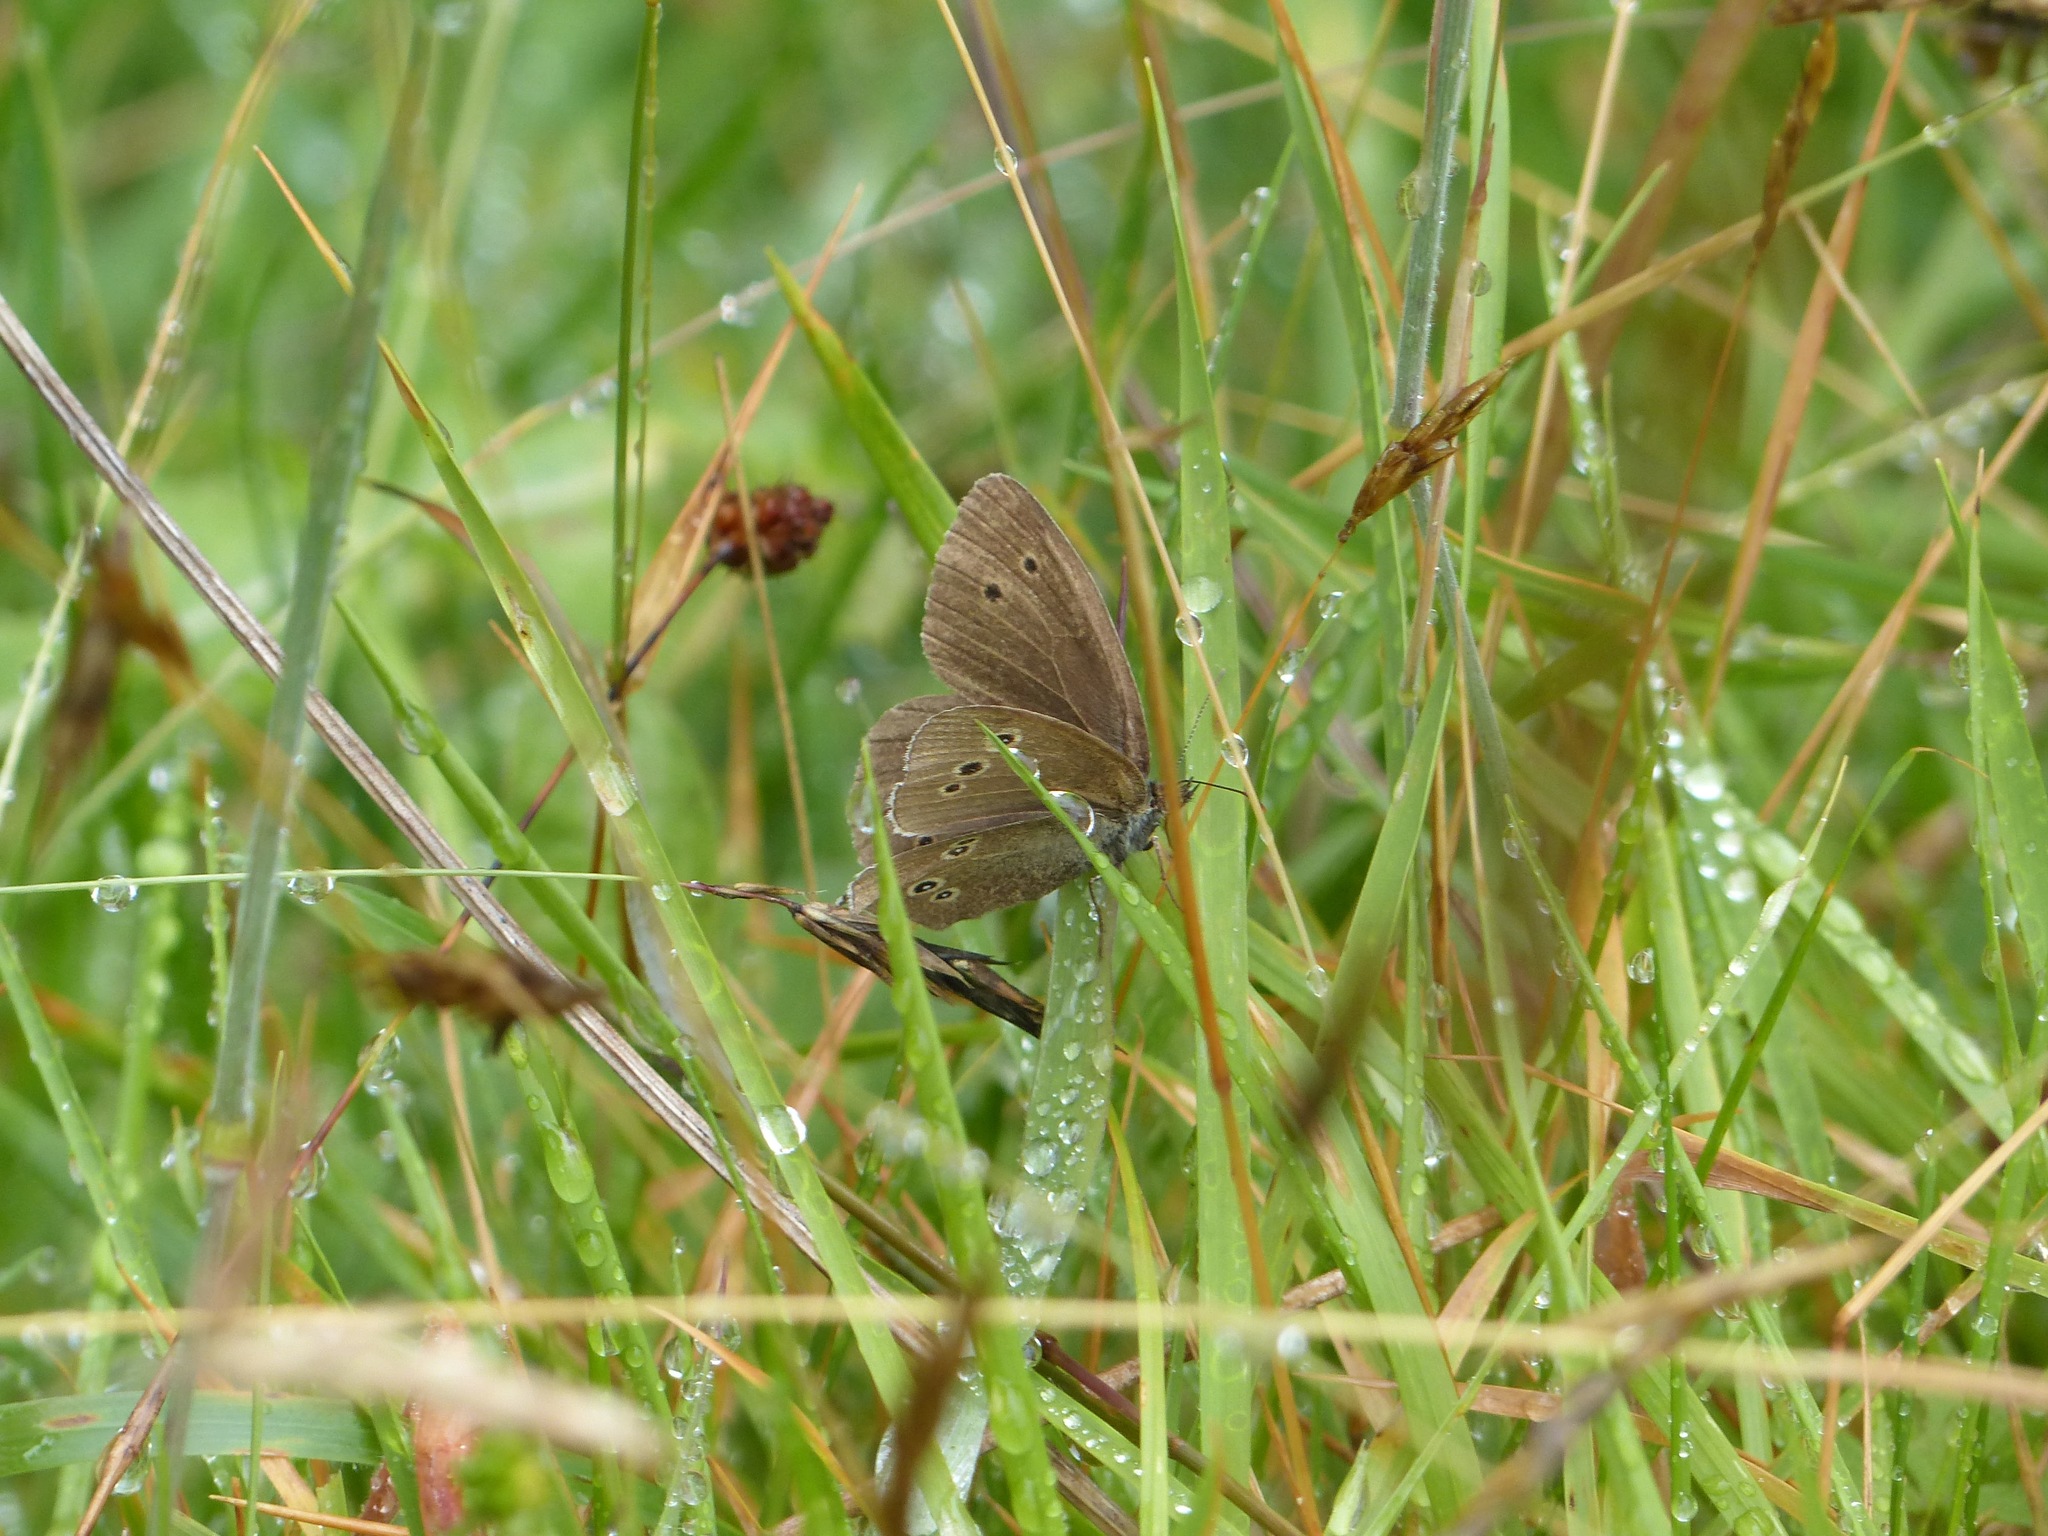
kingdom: Animalia
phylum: Arthropoda
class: Insecta
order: Lepidoptera
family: Nymphalidae
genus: Aphantopus
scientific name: Aphantopus hyperantus
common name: Ringlet
